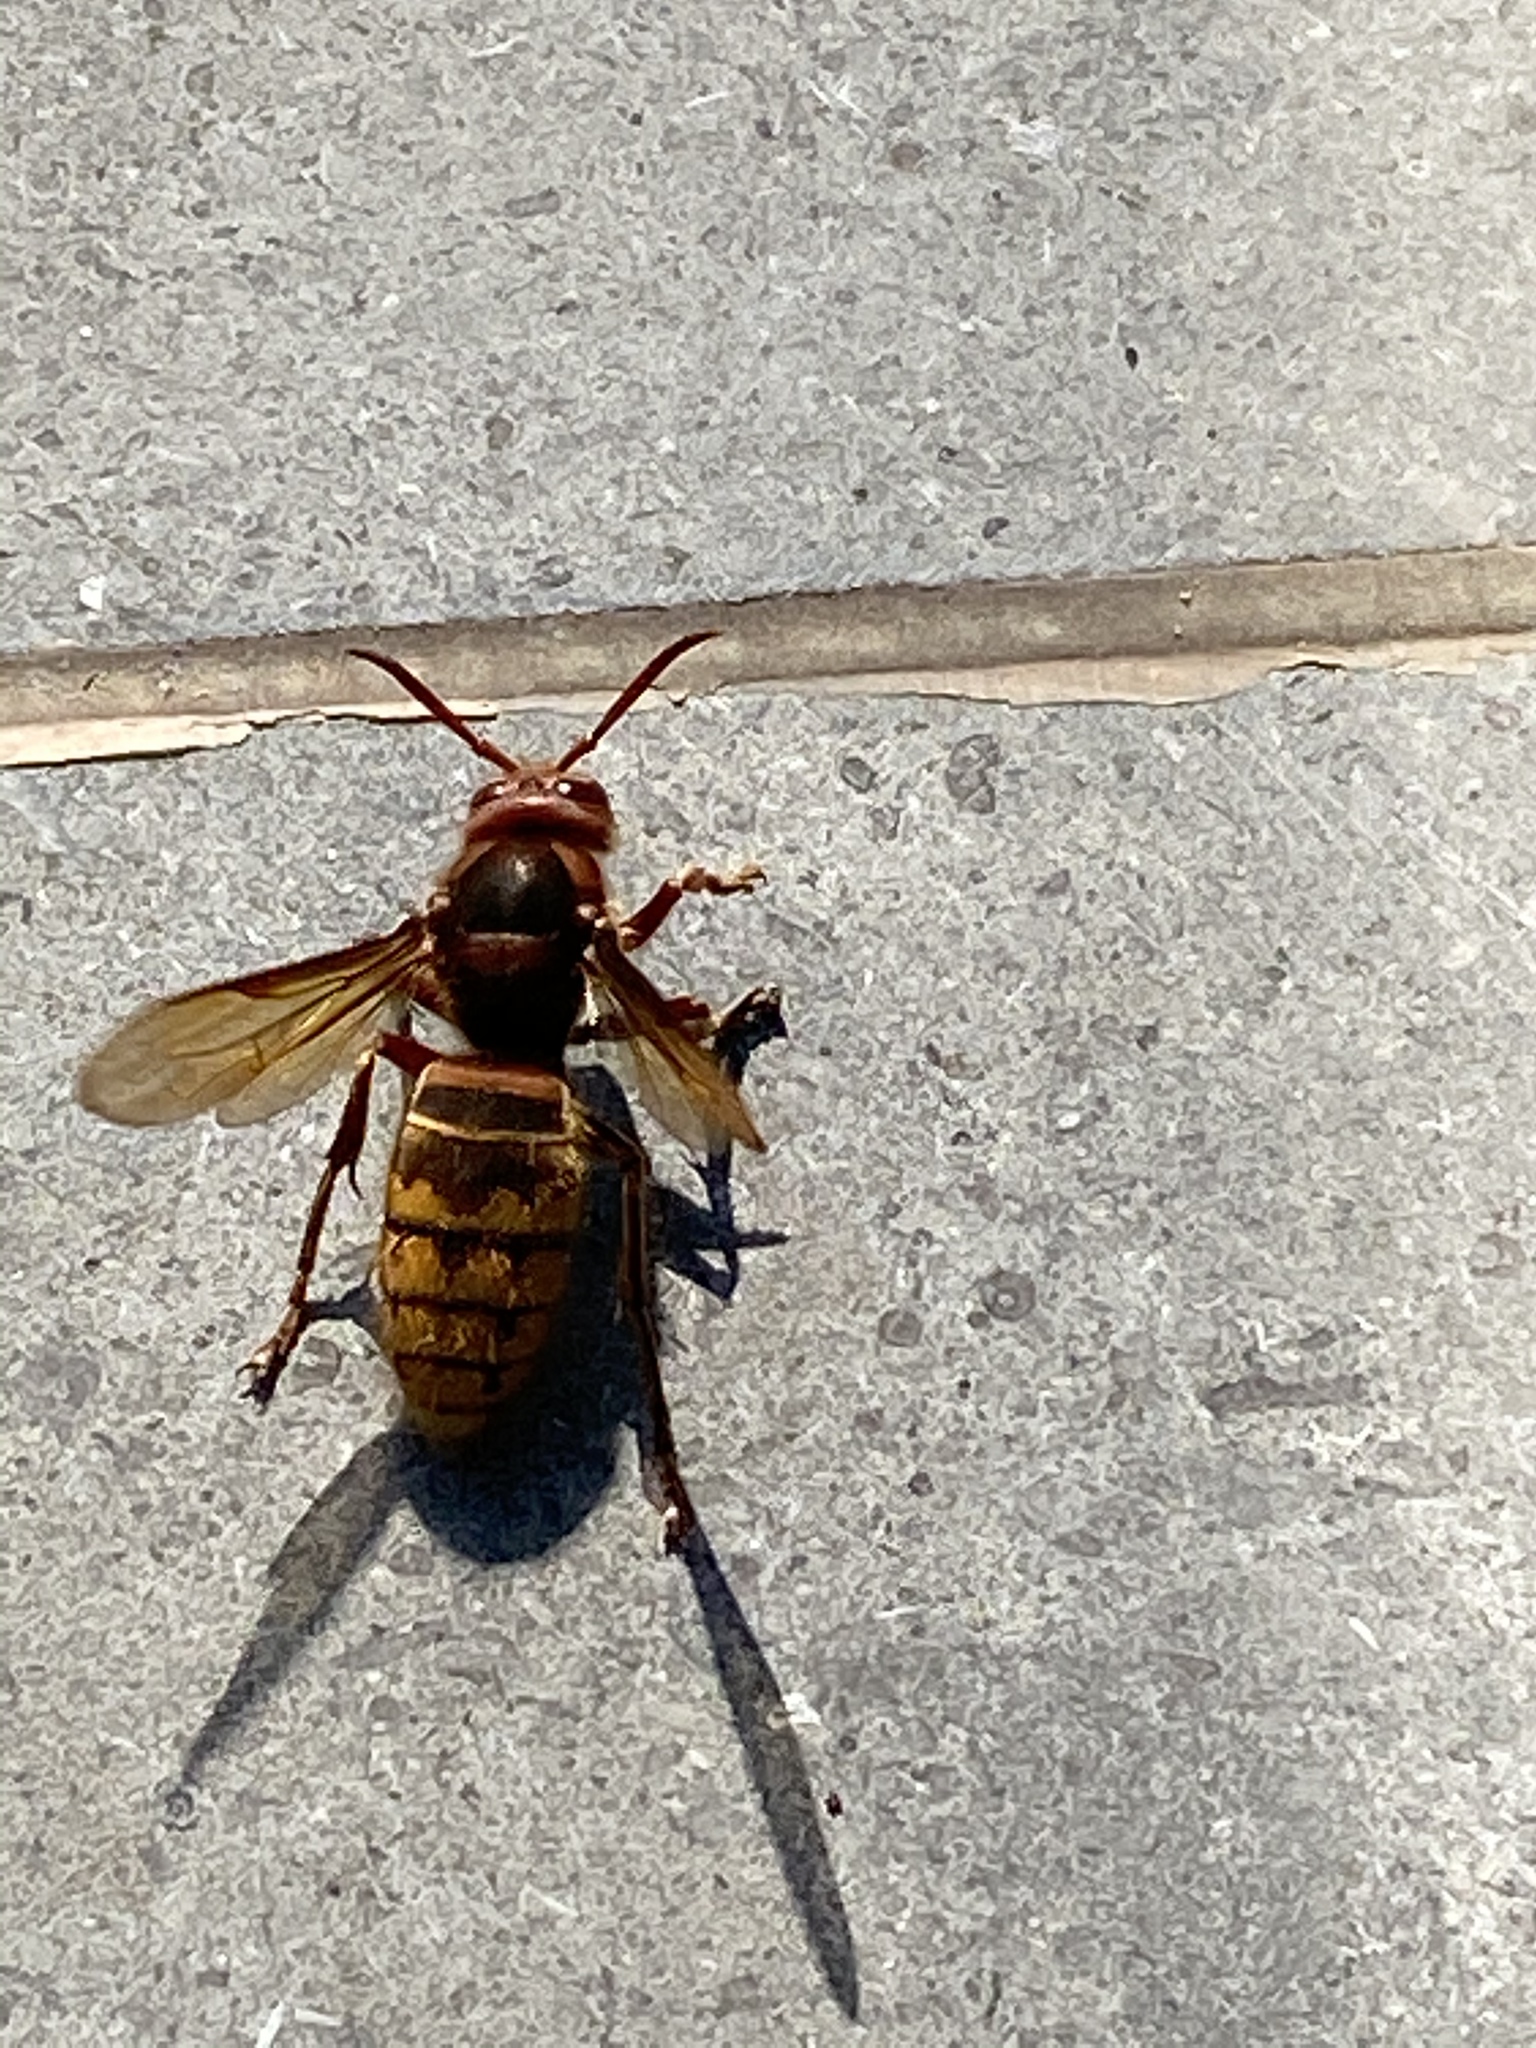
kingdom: Animalia
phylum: Arthropoda
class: Insecta
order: Hymenoptera
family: Vespidae
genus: Vespa
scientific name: Vespa crabro
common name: Hornet
